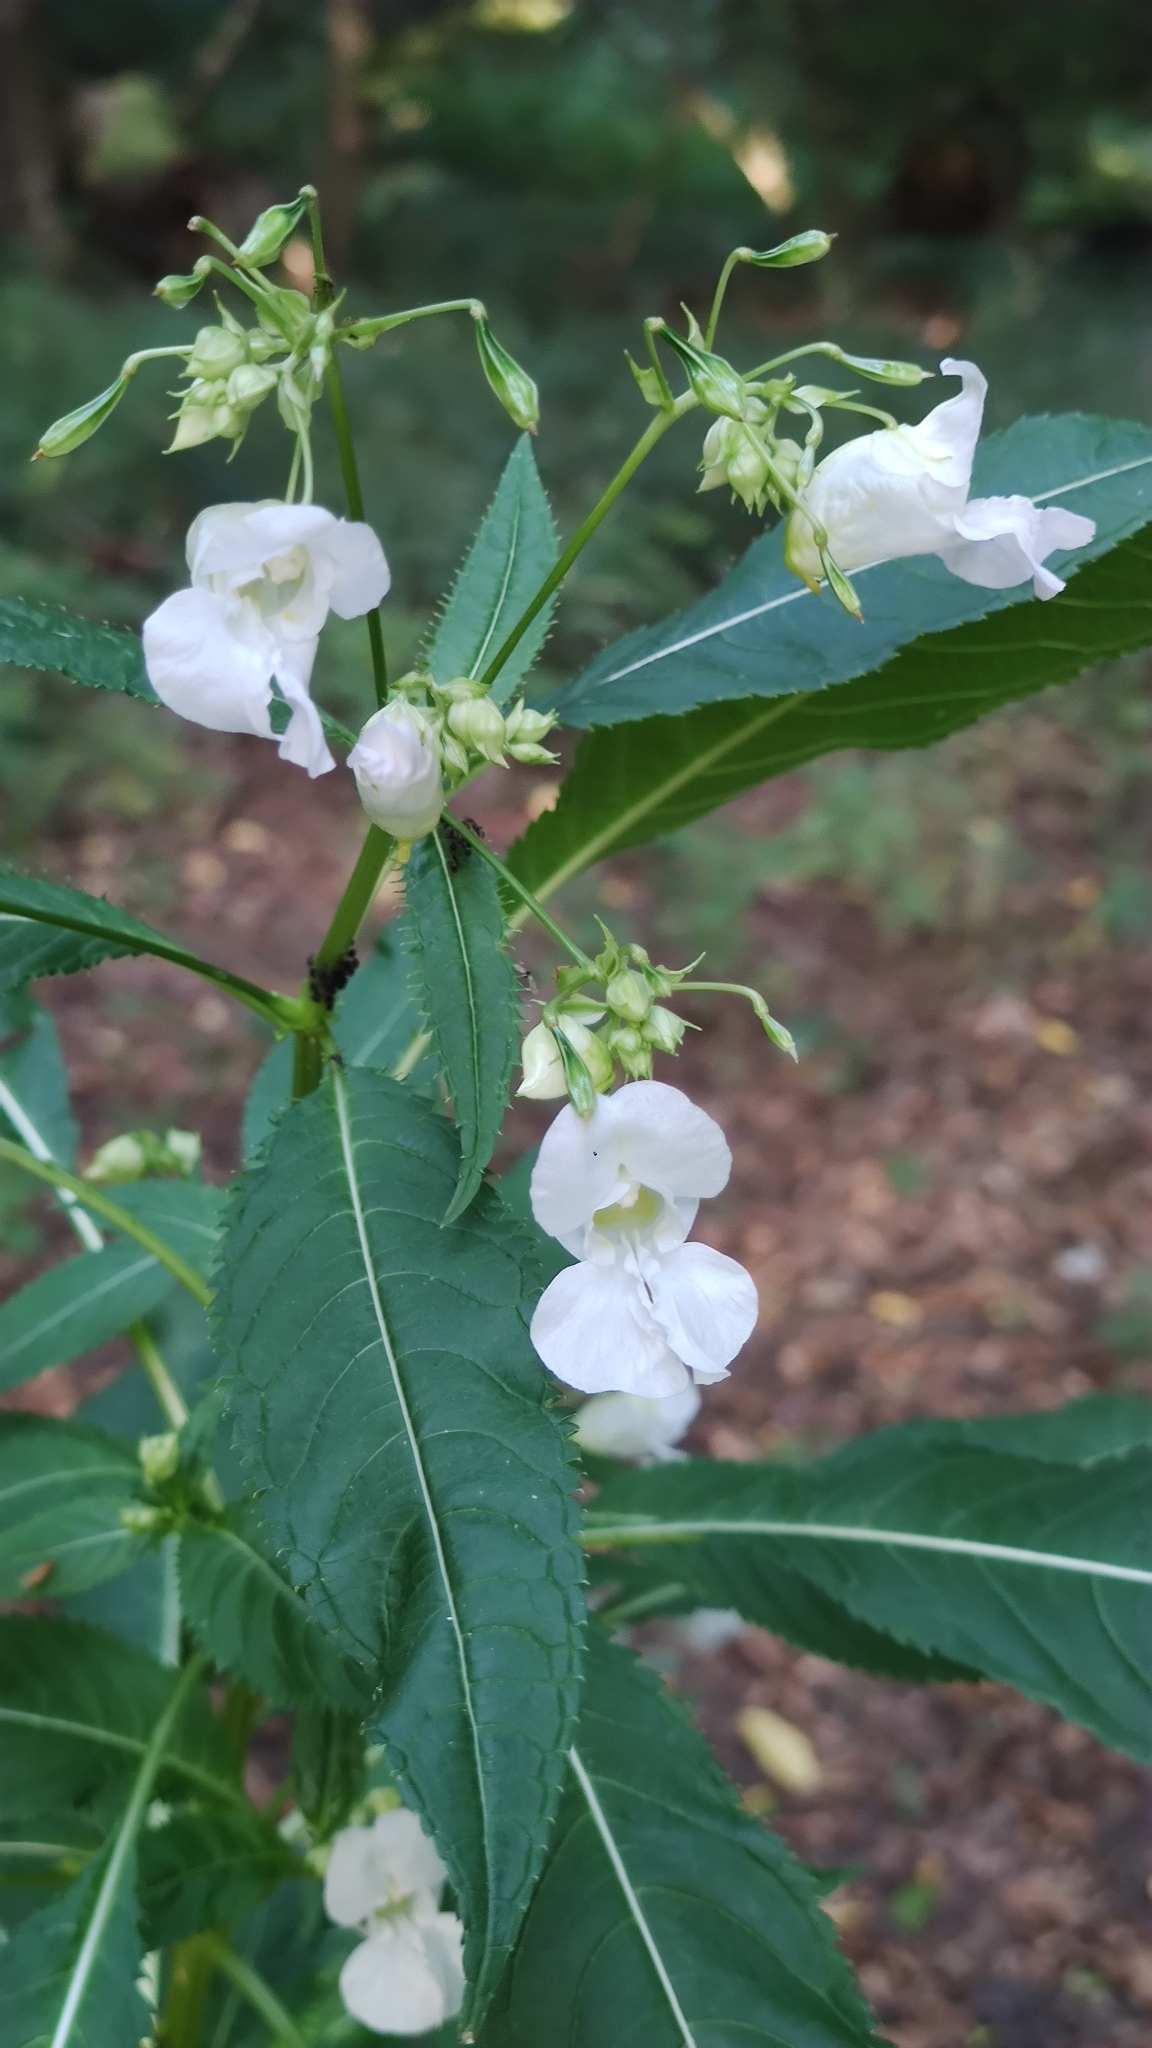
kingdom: Plantae
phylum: Tracheophyta
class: Magnoliopsida
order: Ericales
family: Balsaminaceae
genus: Impatiens
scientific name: Impatiens glandulifera
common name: Himalayan balsam
